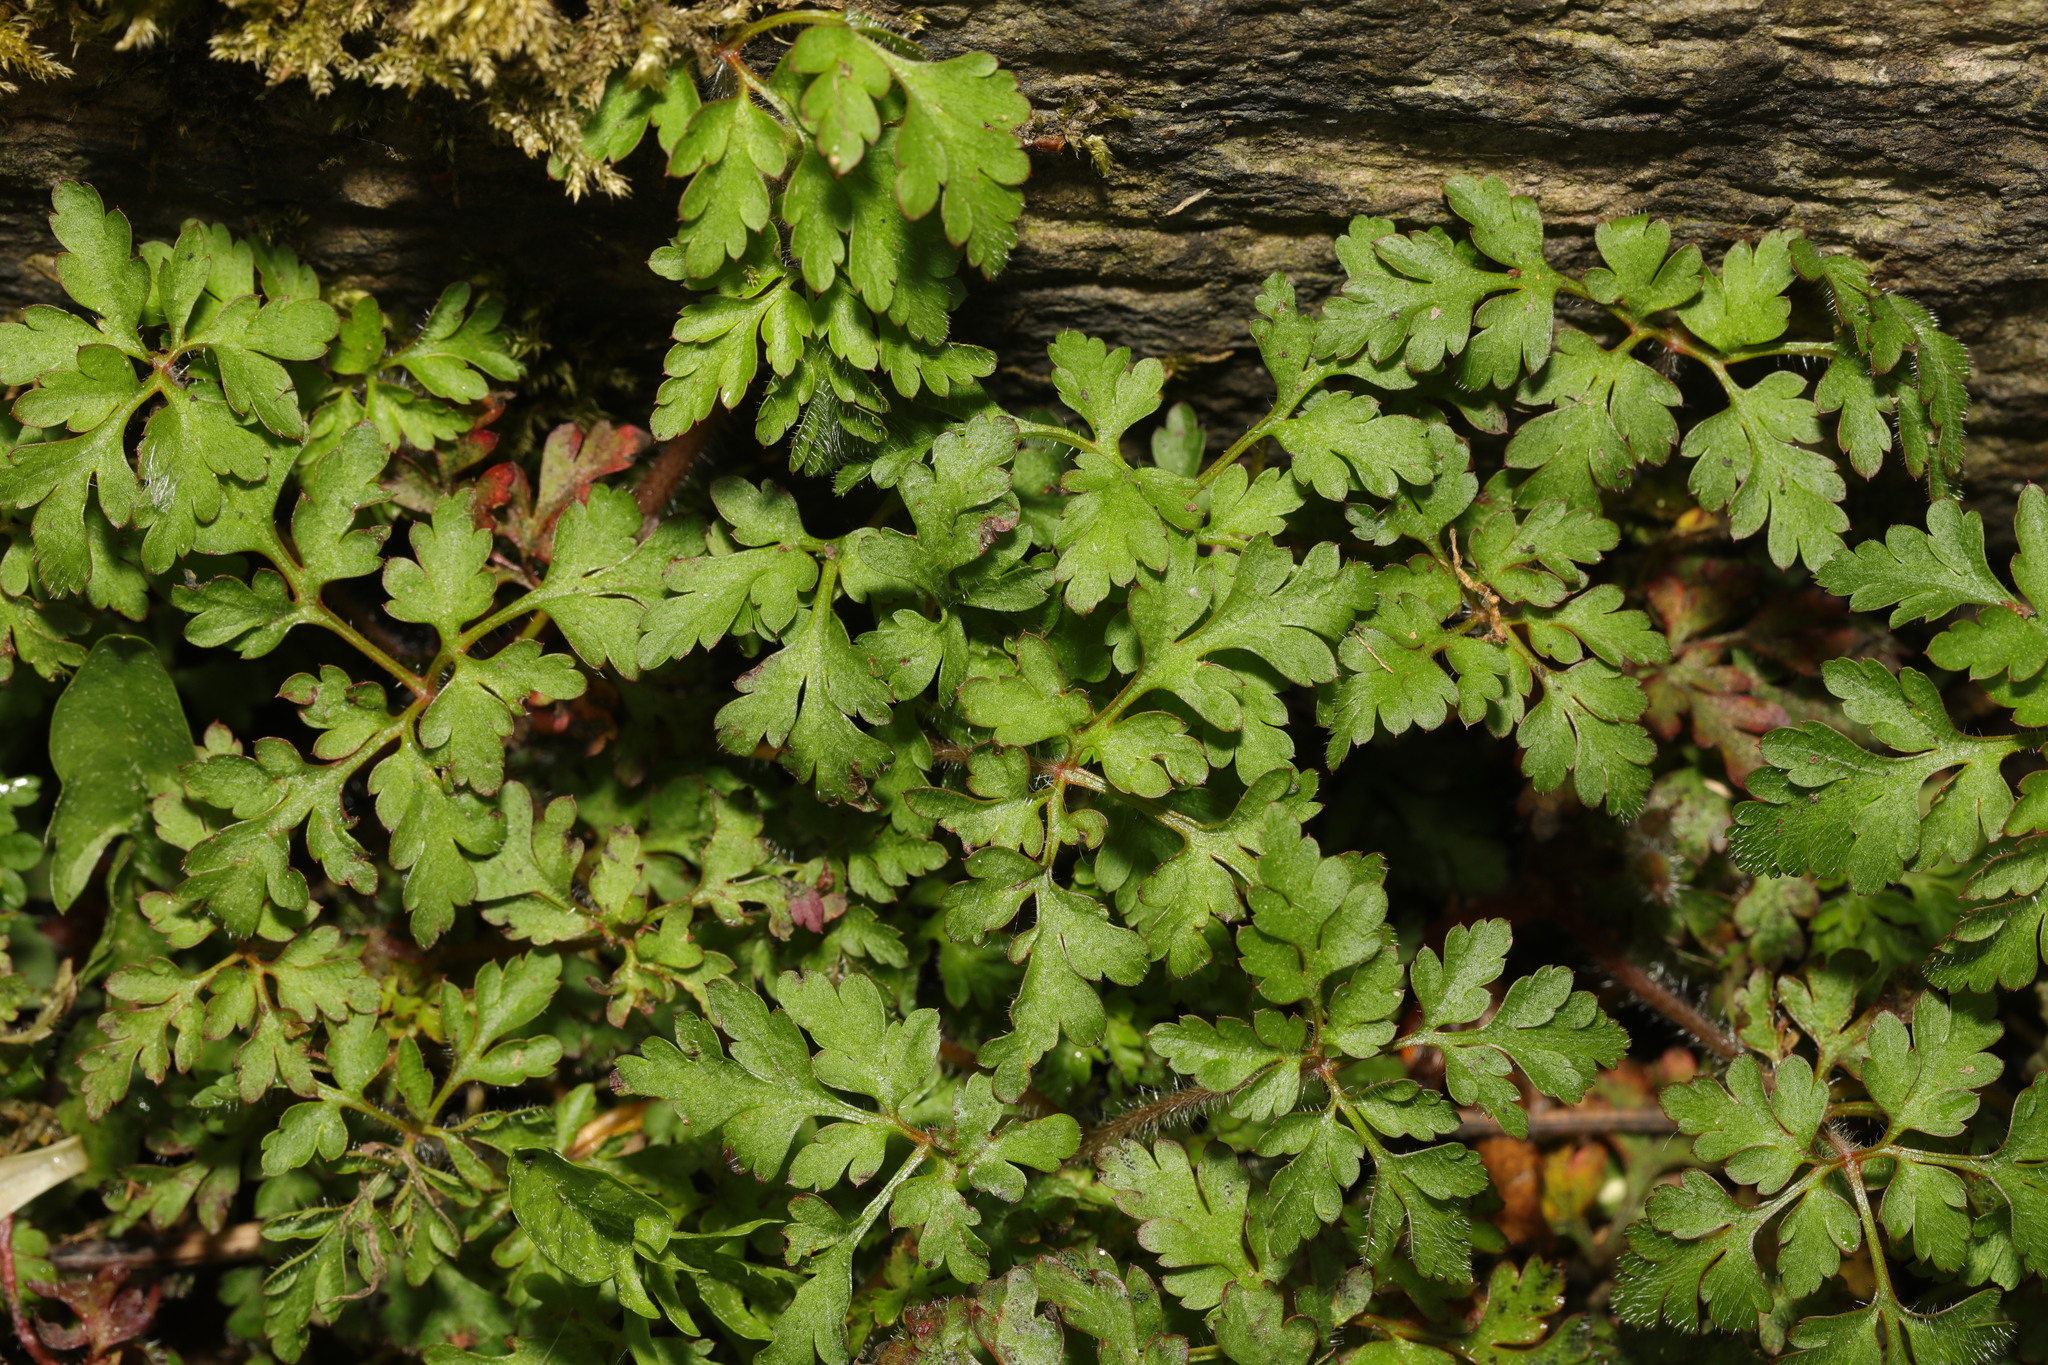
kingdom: Plantae
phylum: Tracheophyta
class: Magnoliopsida
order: Geraniales
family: Geraniaceae
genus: Geranium
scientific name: Geranium robertianum
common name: Herb-robert
